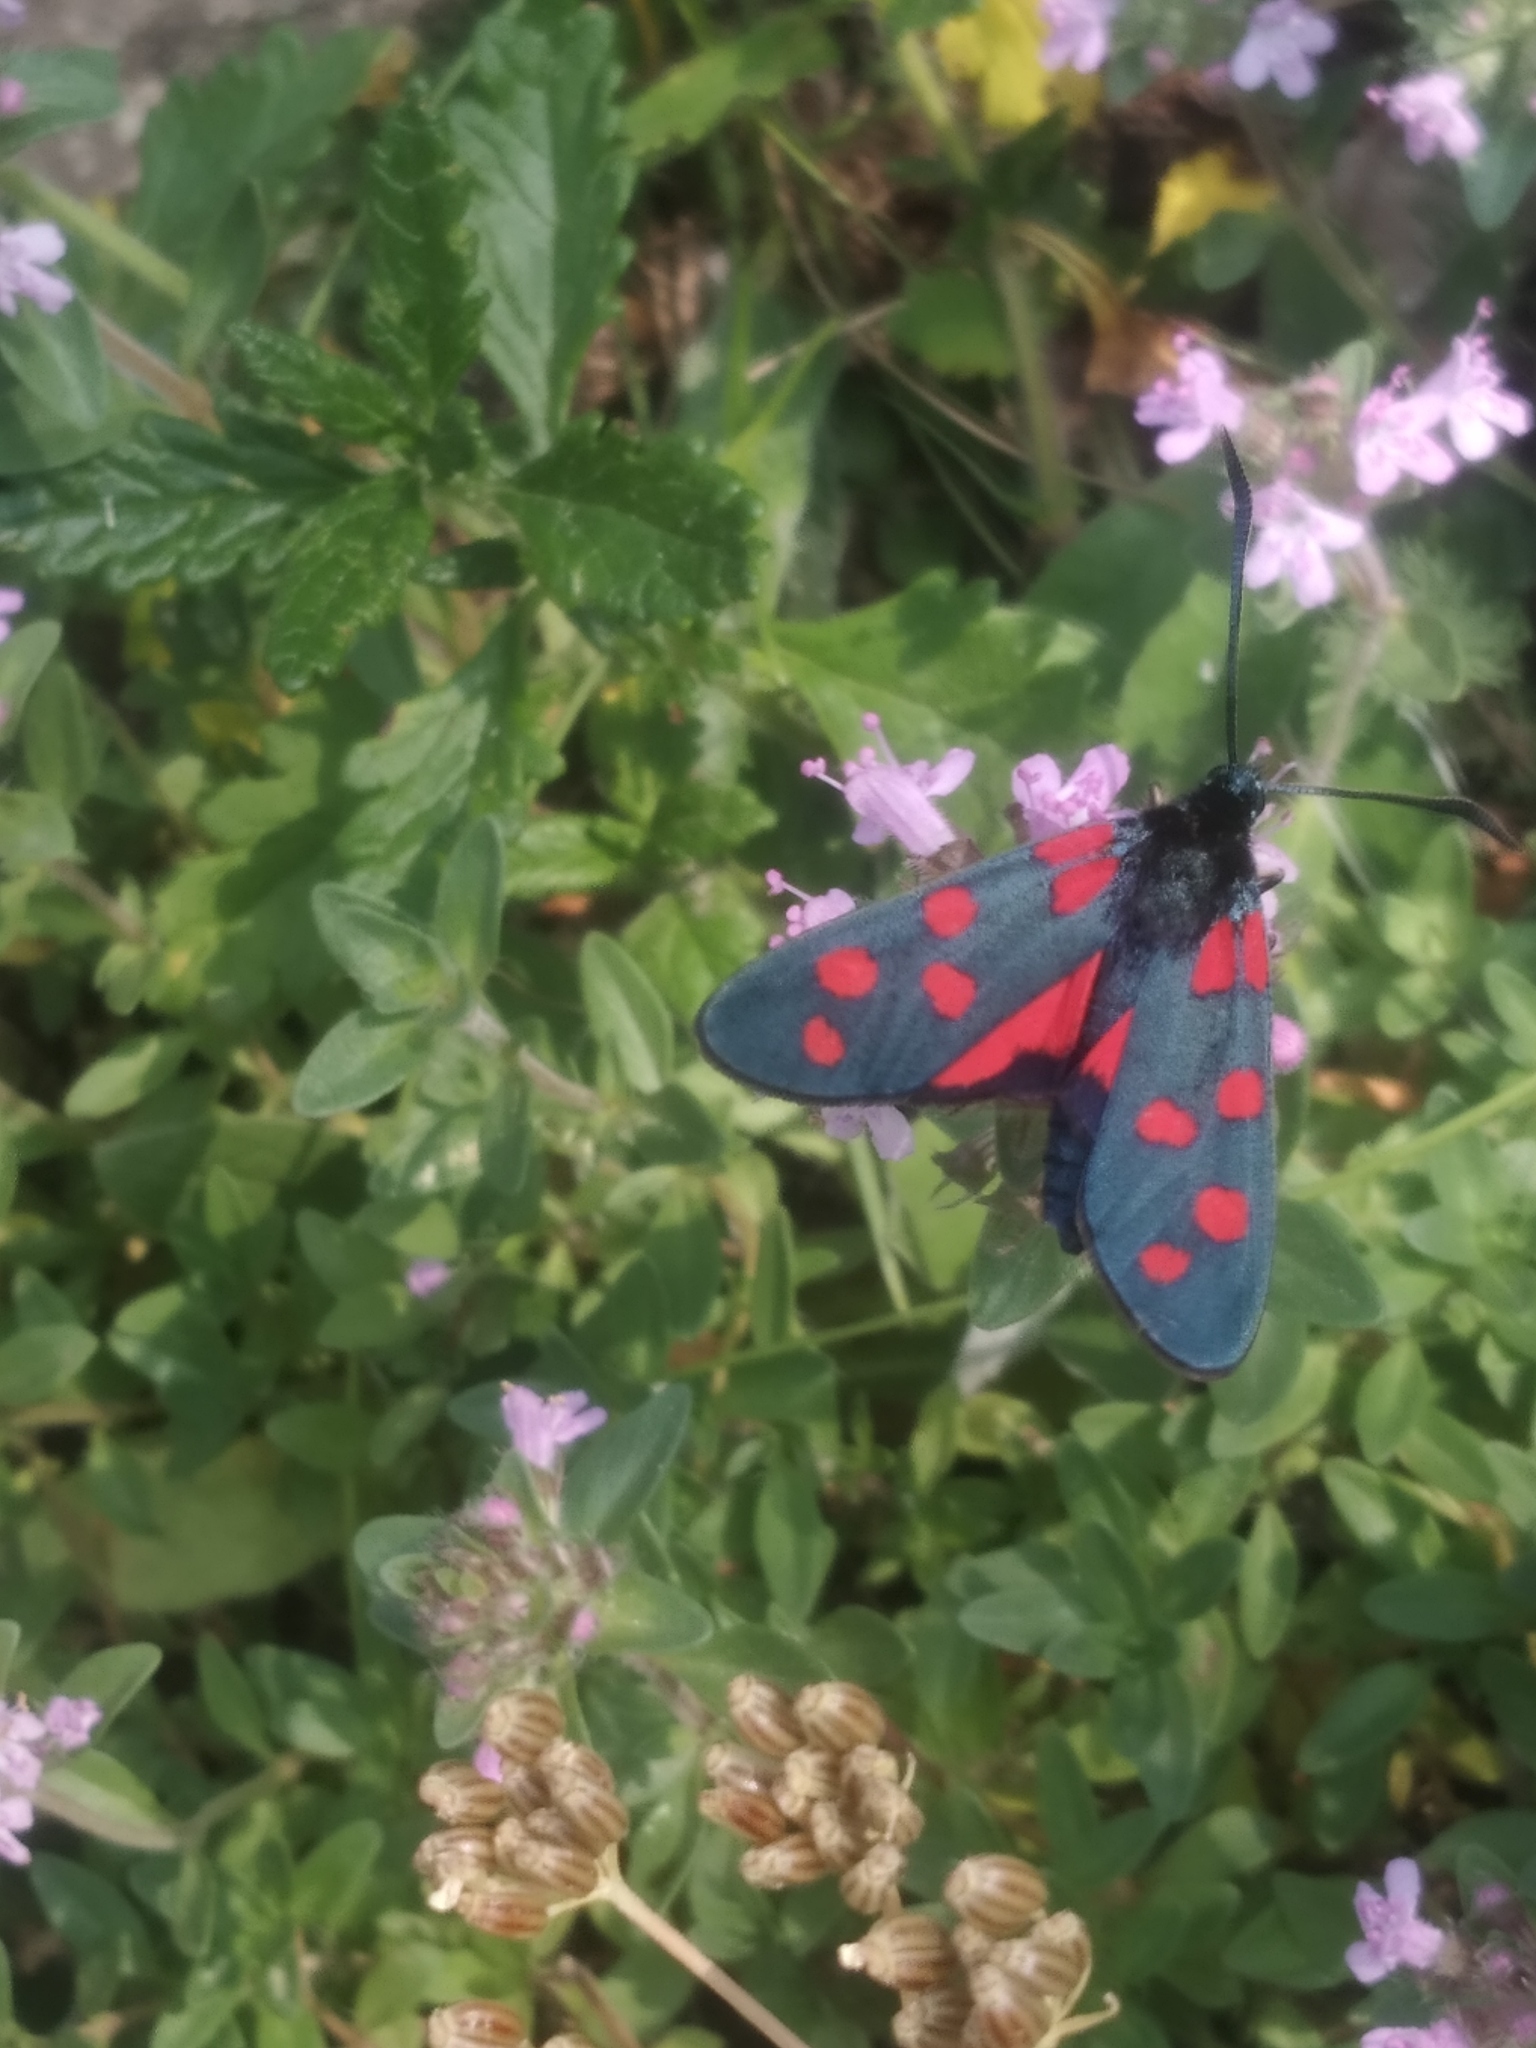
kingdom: Animalia
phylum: Arthropoda
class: Insecta
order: Lepidoptera
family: Zygaenidae
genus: Zygaena
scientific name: Zygaena transalpina
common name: Southern six spot burnet
